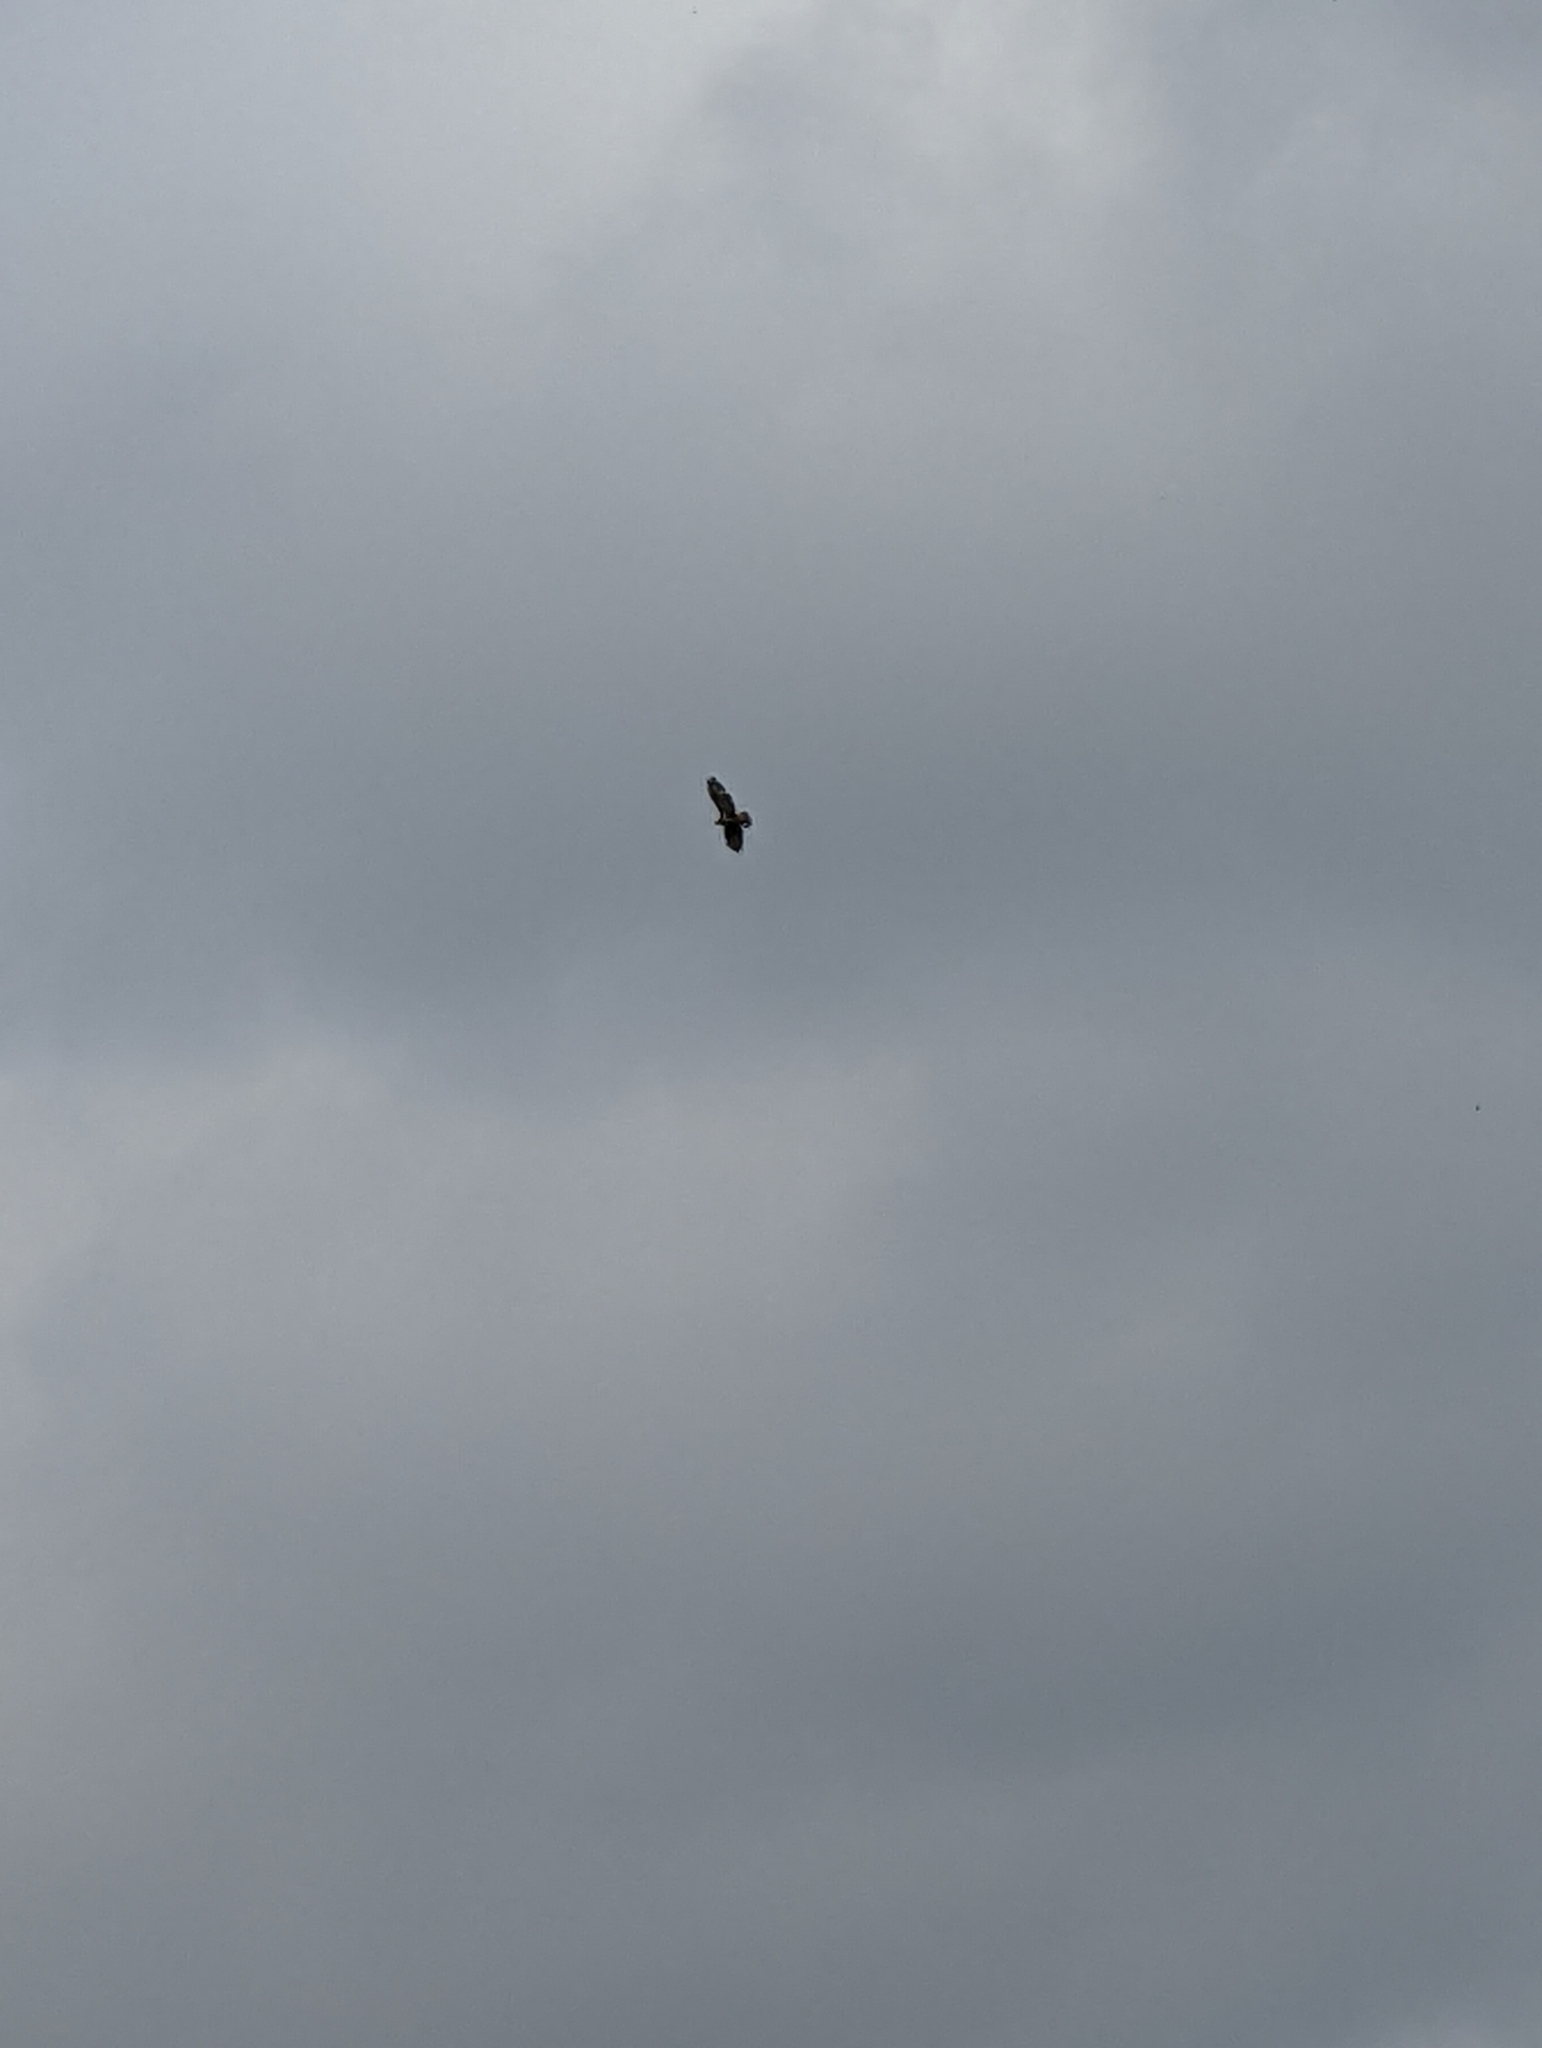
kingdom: Animalia
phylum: Chordata
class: Aves
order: Accipitriformes
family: Accipitridae
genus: Buteo
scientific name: Buteo buteo
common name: Common buzzard
